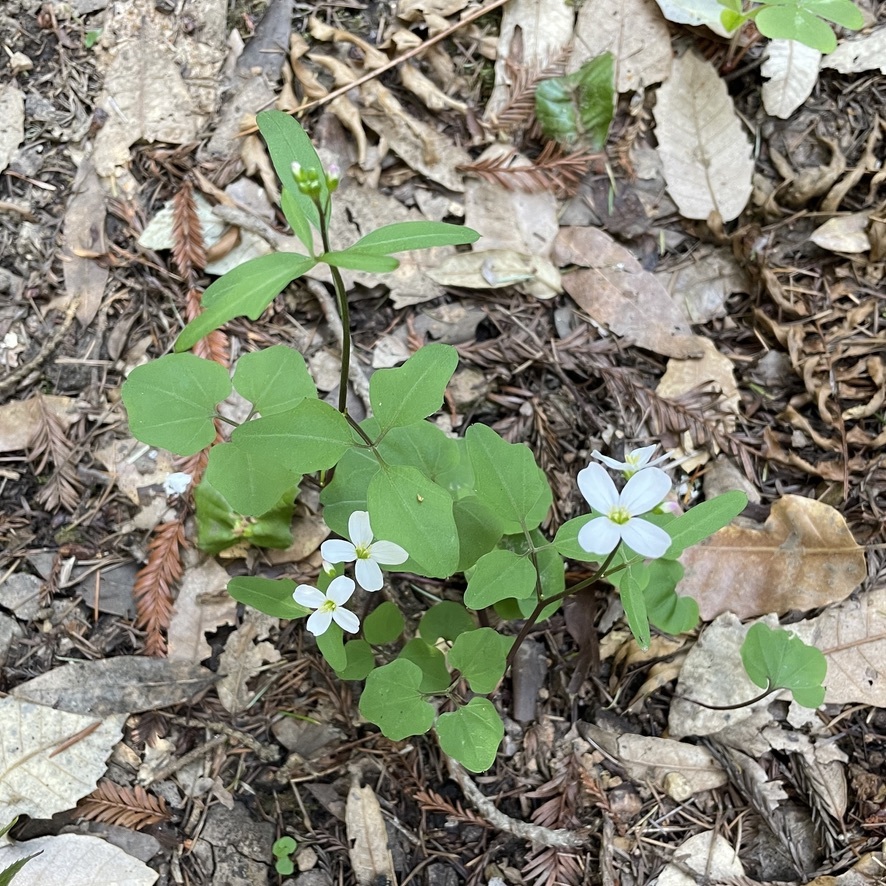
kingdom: Plantae
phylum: Tracheophyta
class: Magnoliopsida
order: Brassicales
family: Brassicaceae
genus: Cardamine
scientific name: Cardamine californica
